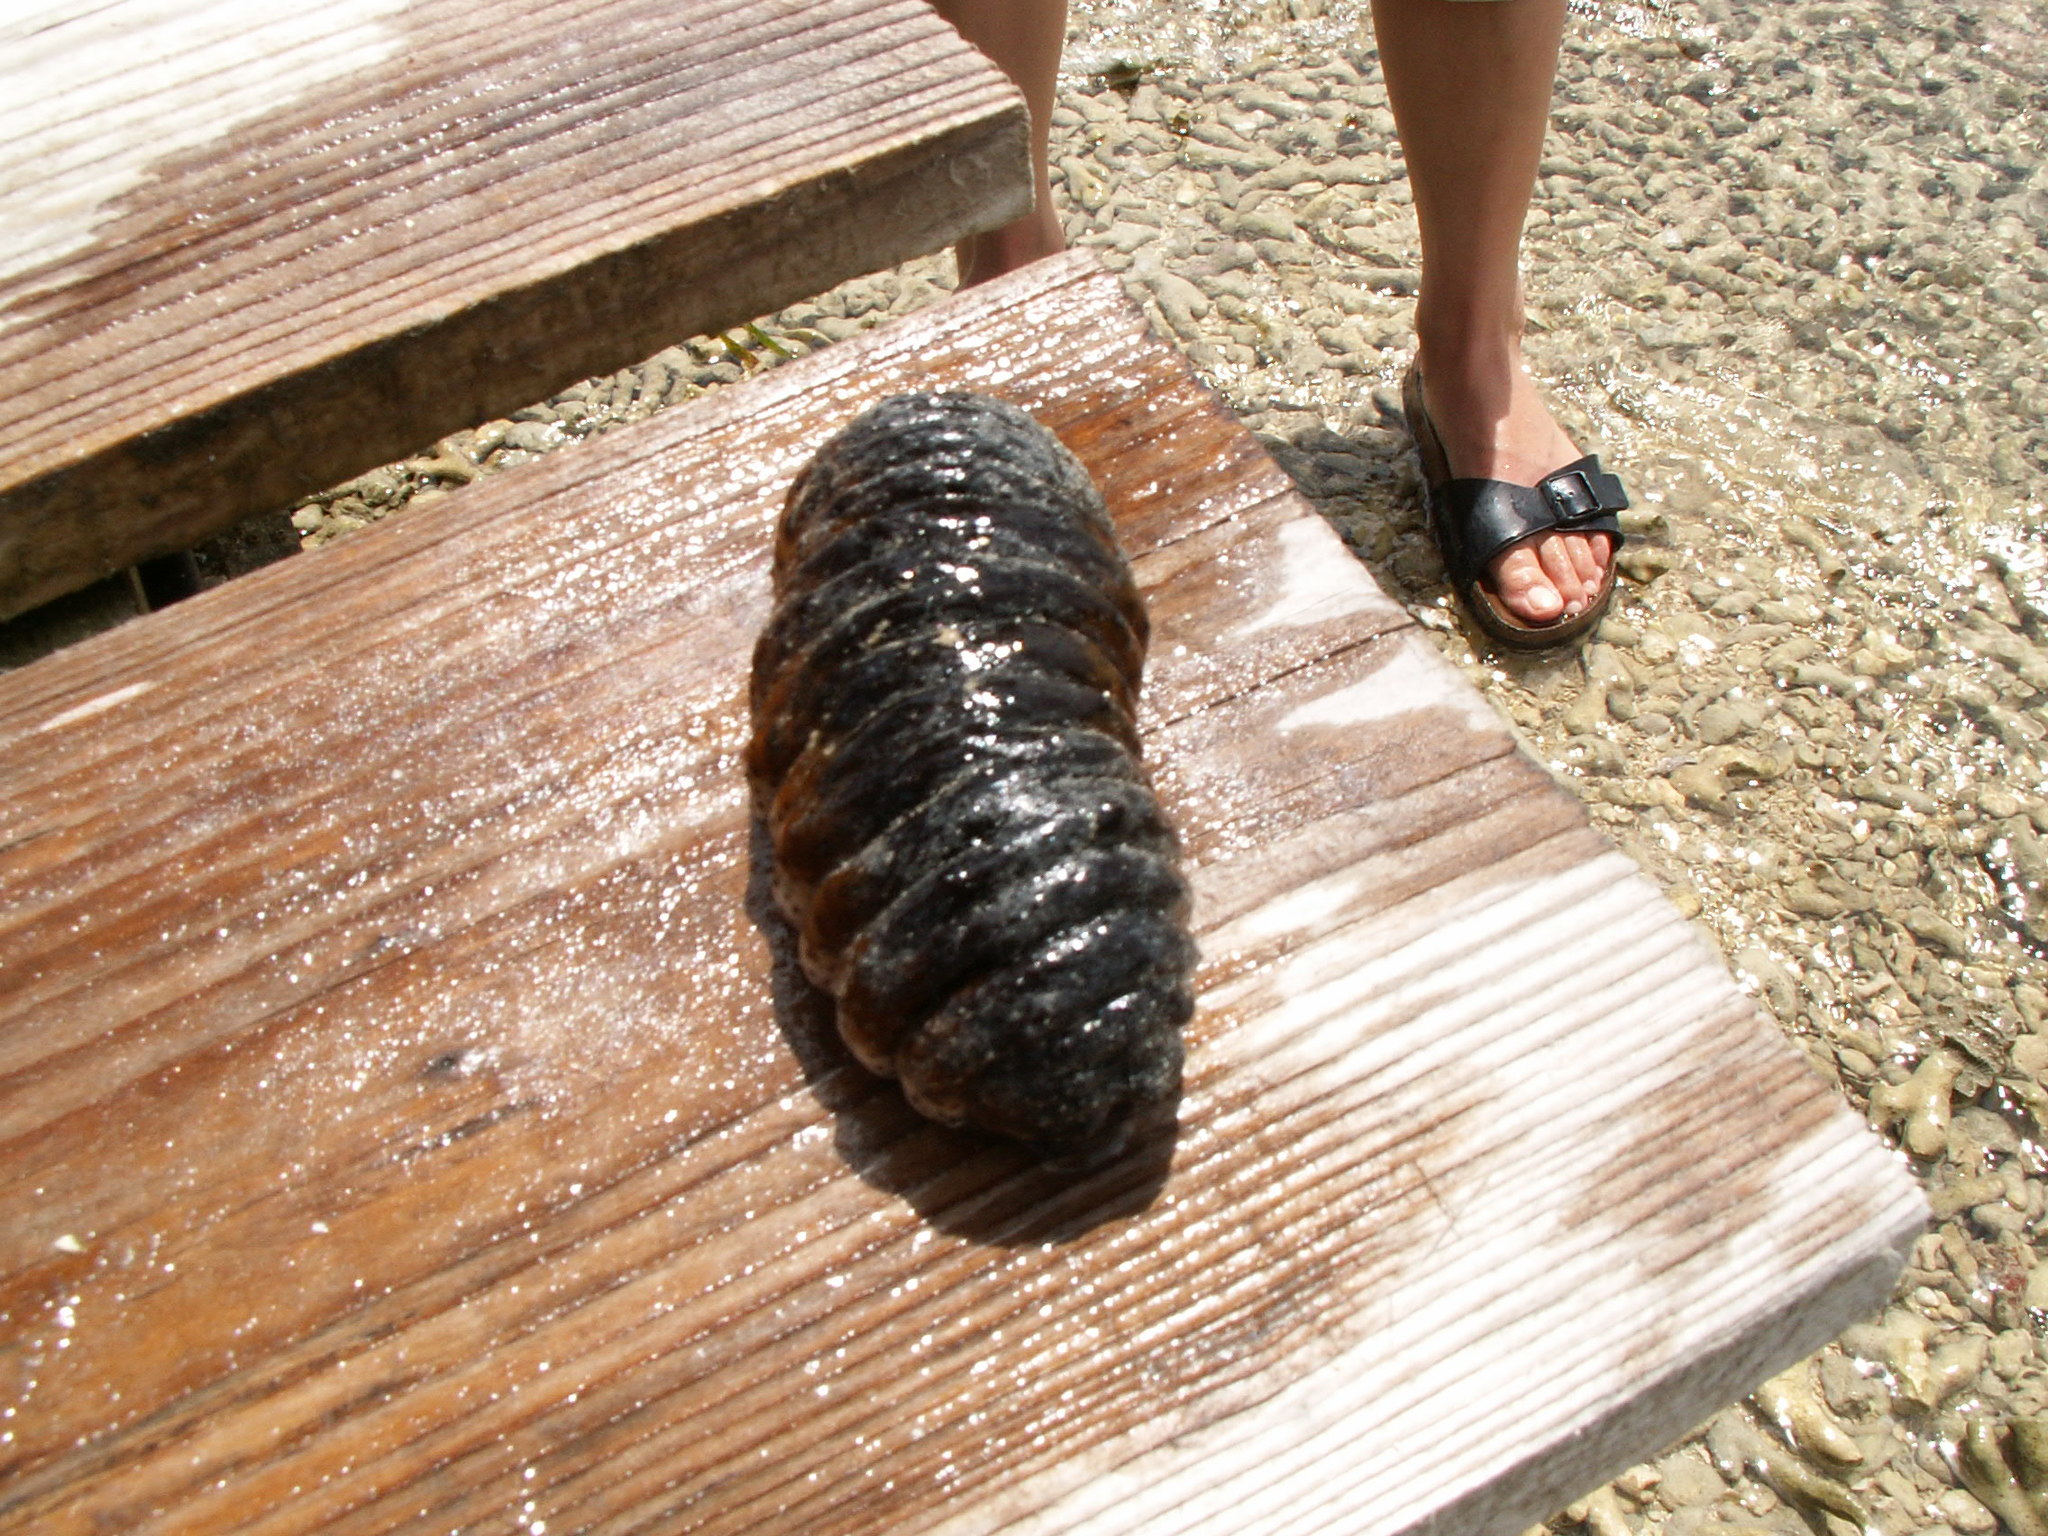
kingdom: Animalia
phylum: Echinodermata
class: Holothuroidea
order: Holothuriida
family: Holothuriidae
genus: Holothuria
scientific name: Holothuria mexicana
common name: Donkey dung sea cucumber
